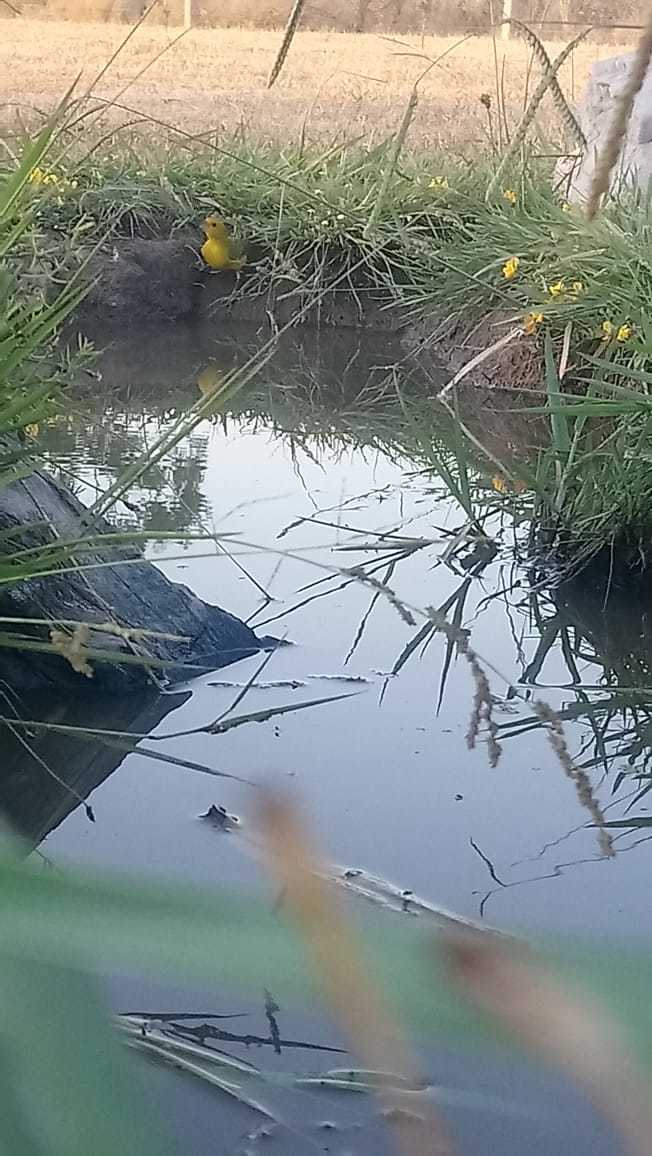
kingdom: Animalia
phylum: Chordata
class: Aves
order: Passeriformes
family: Thraupidae
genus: Sicalis
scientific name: Sicalis flaveola
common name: Saffron finch
